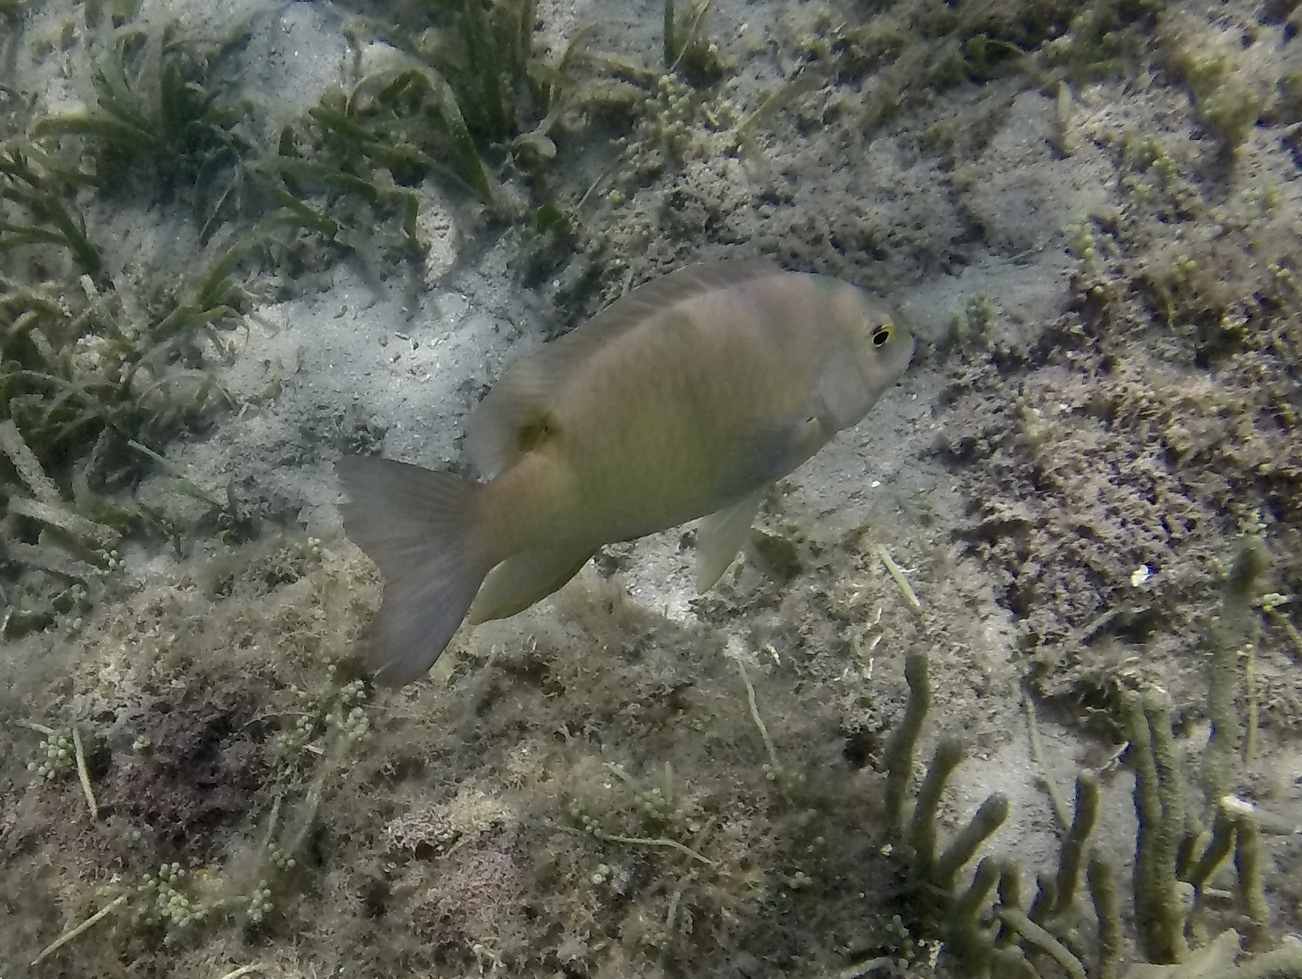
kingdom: Animalia
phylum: Chordata
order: Perciformes
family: Pomacentridae
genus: Dischistodus
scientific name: Dischistodus perspicillatus
